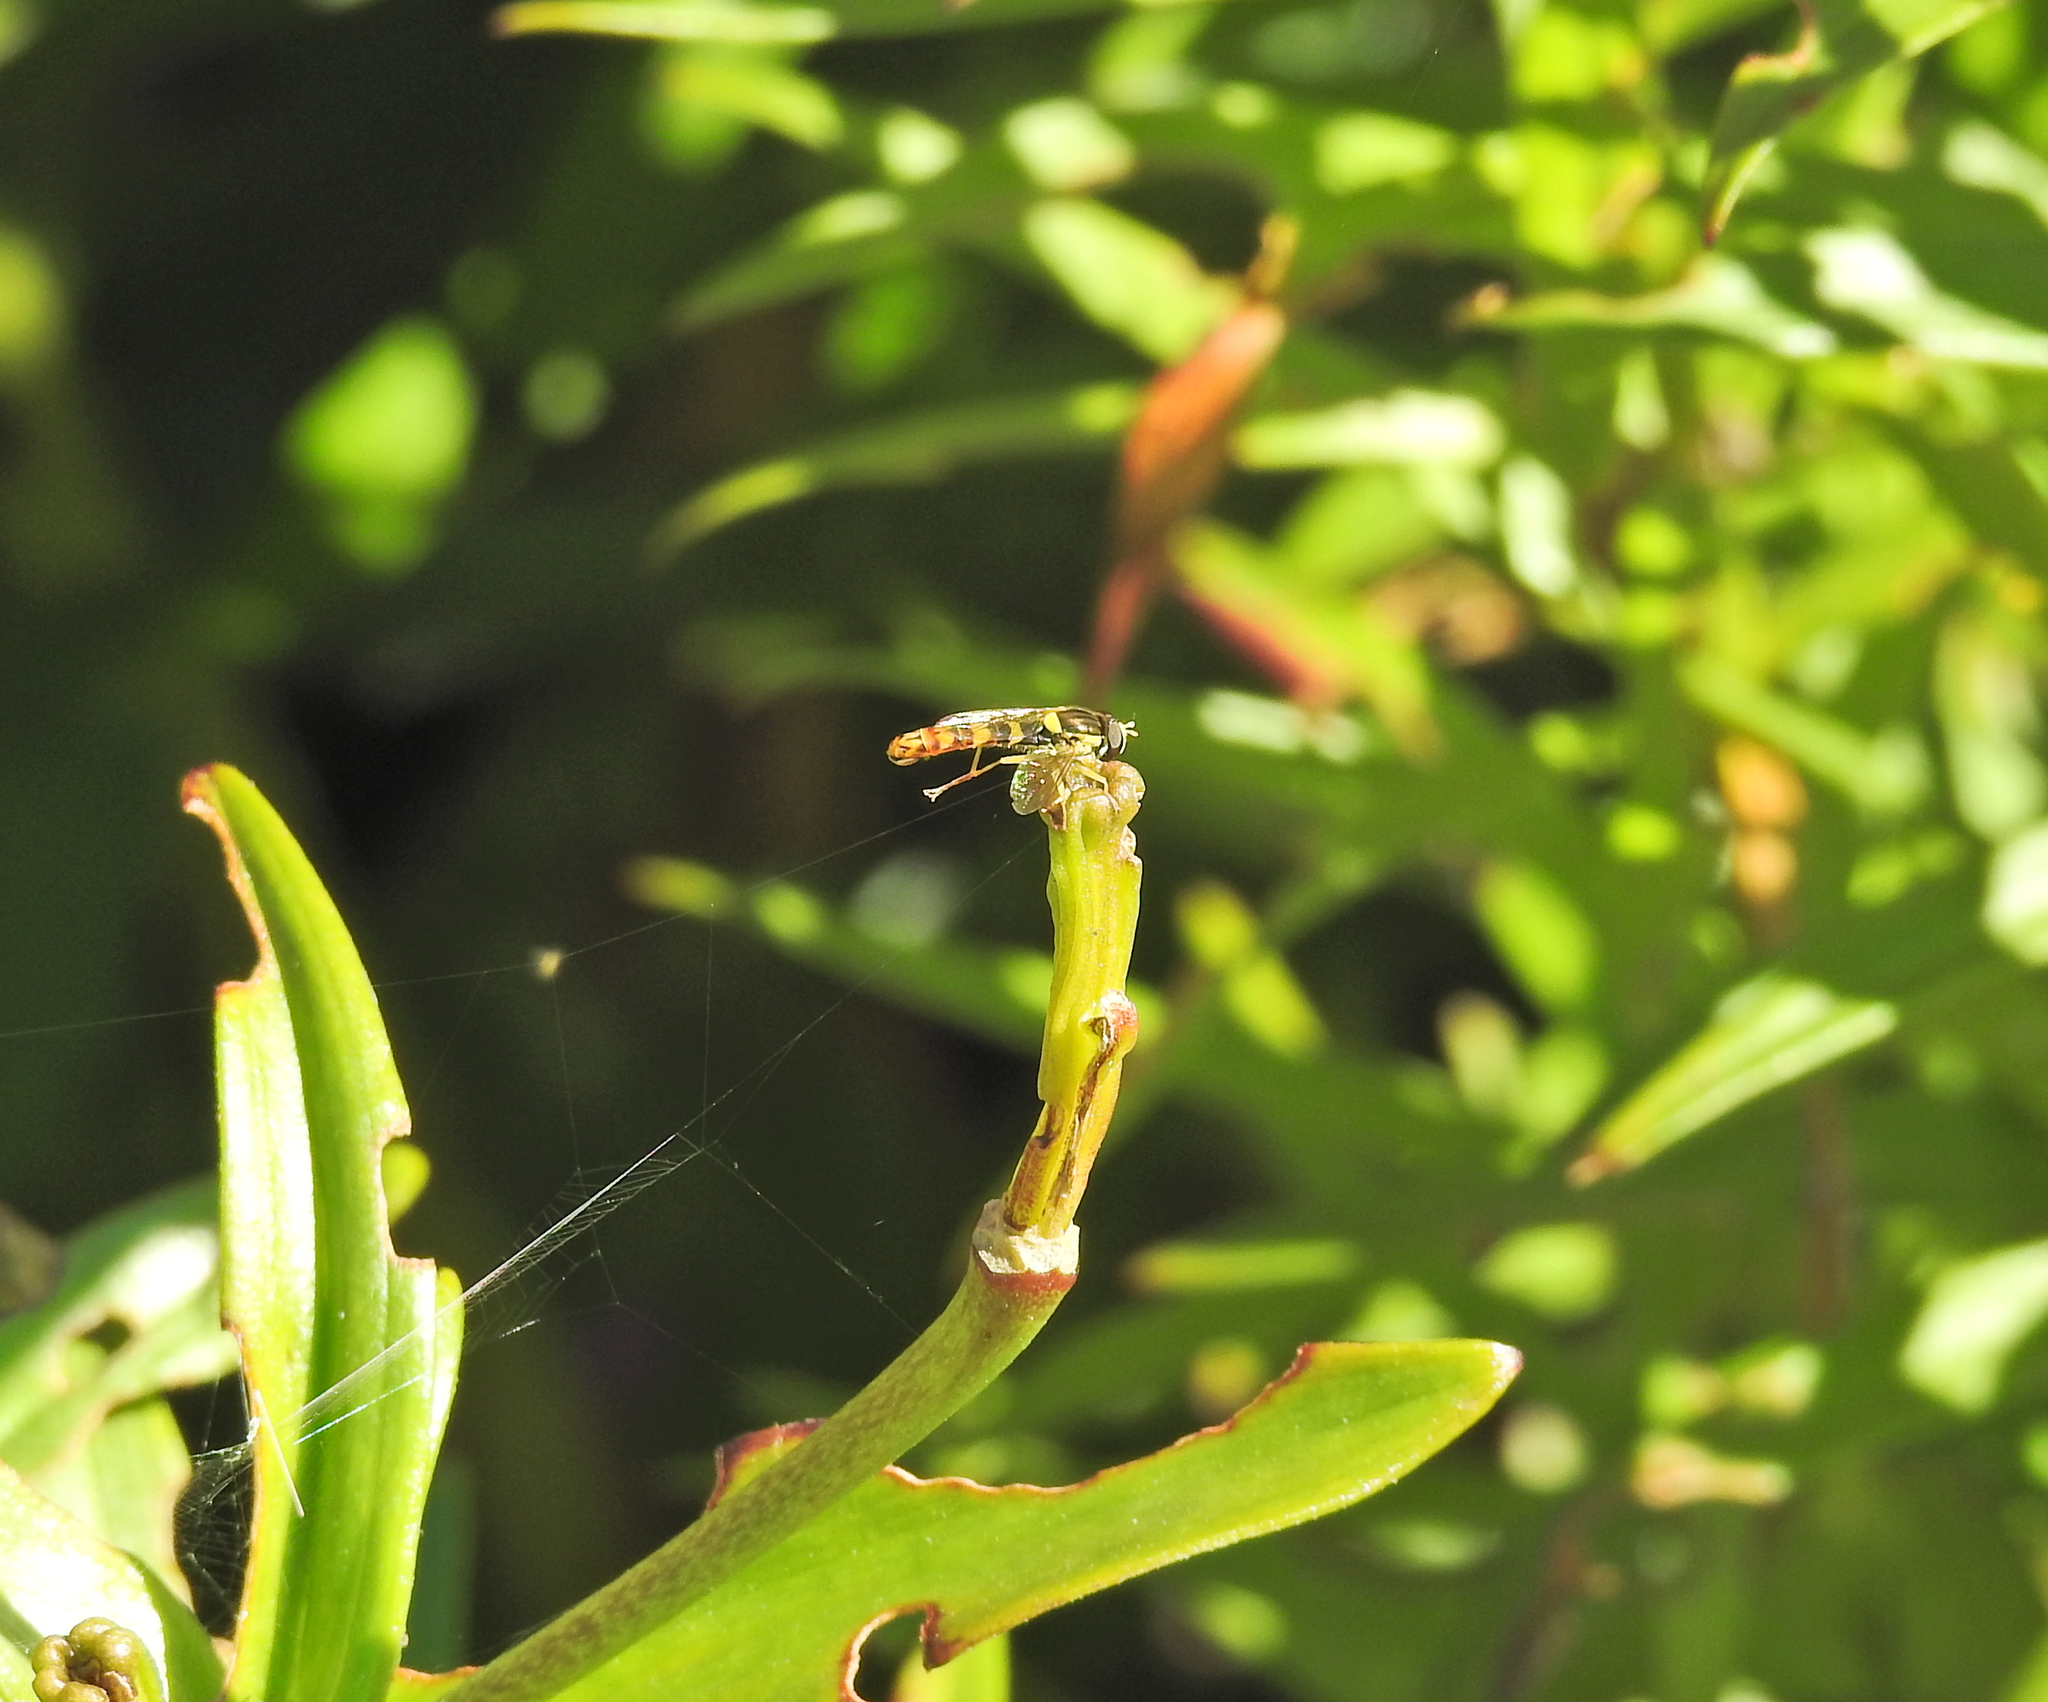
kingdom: Animalia
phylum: Arthropoda
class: Insecta
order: Diptera
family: Syrphidae
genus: Sphaerophoria
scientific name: Sphaerophoria scripta
